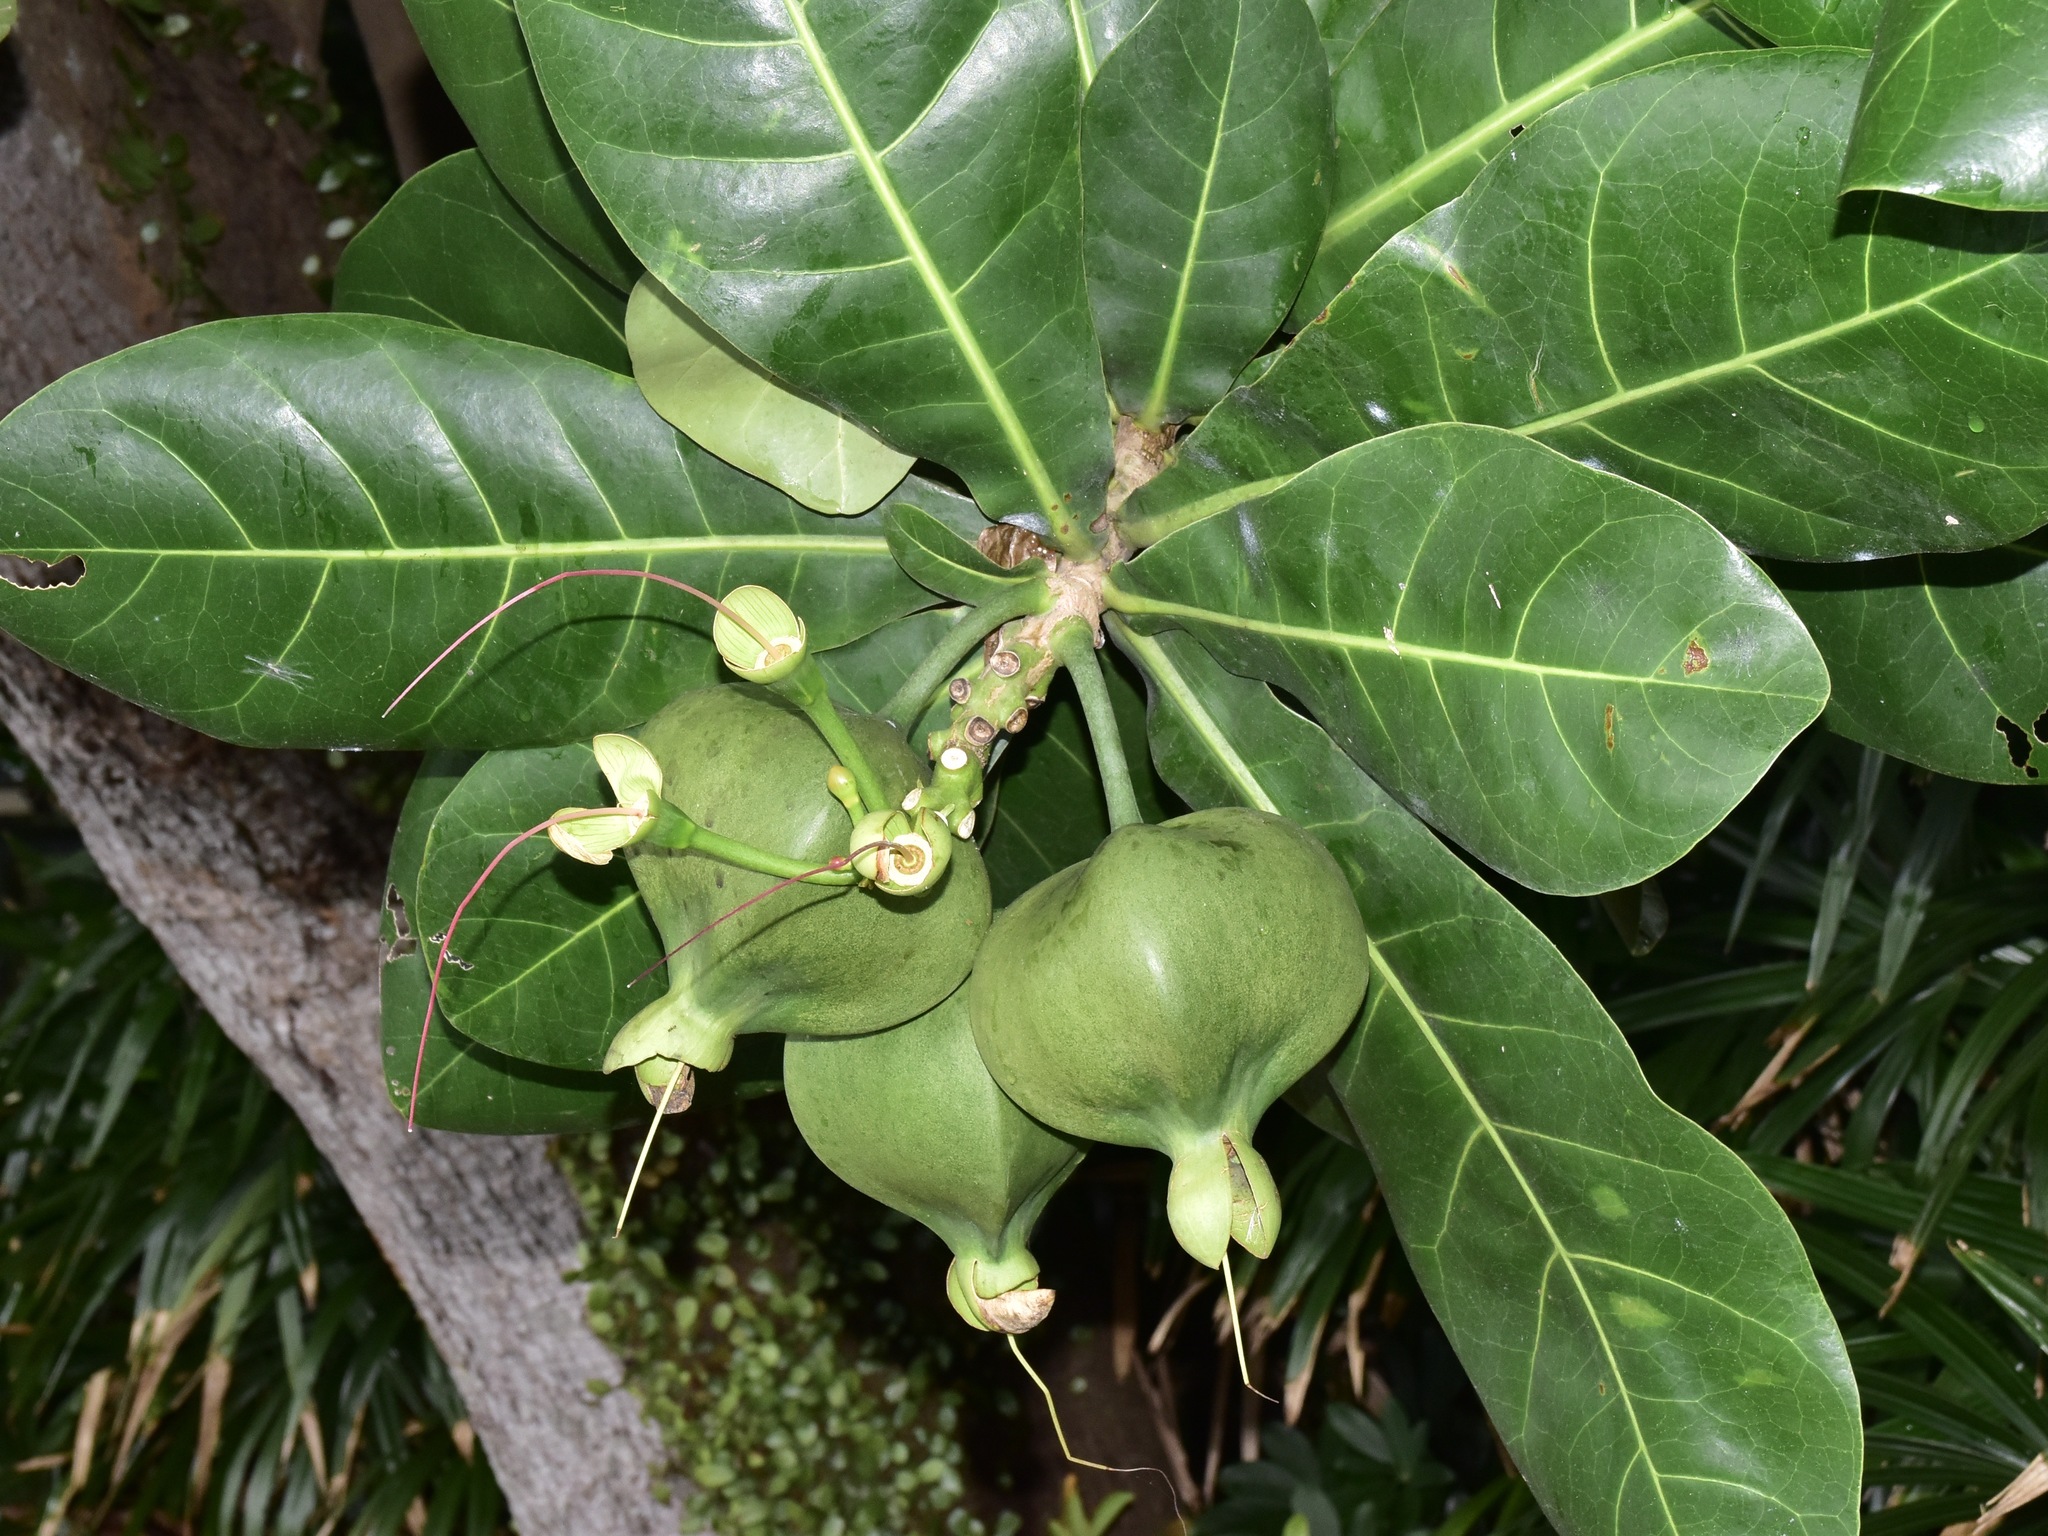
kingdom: Plantae
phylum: Tracheophyta
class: Magnoliopsida
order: Ericales
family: Lecythidaceae
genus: Barringtonia
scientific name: Barringtonia asiatica
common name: Mango-pine
